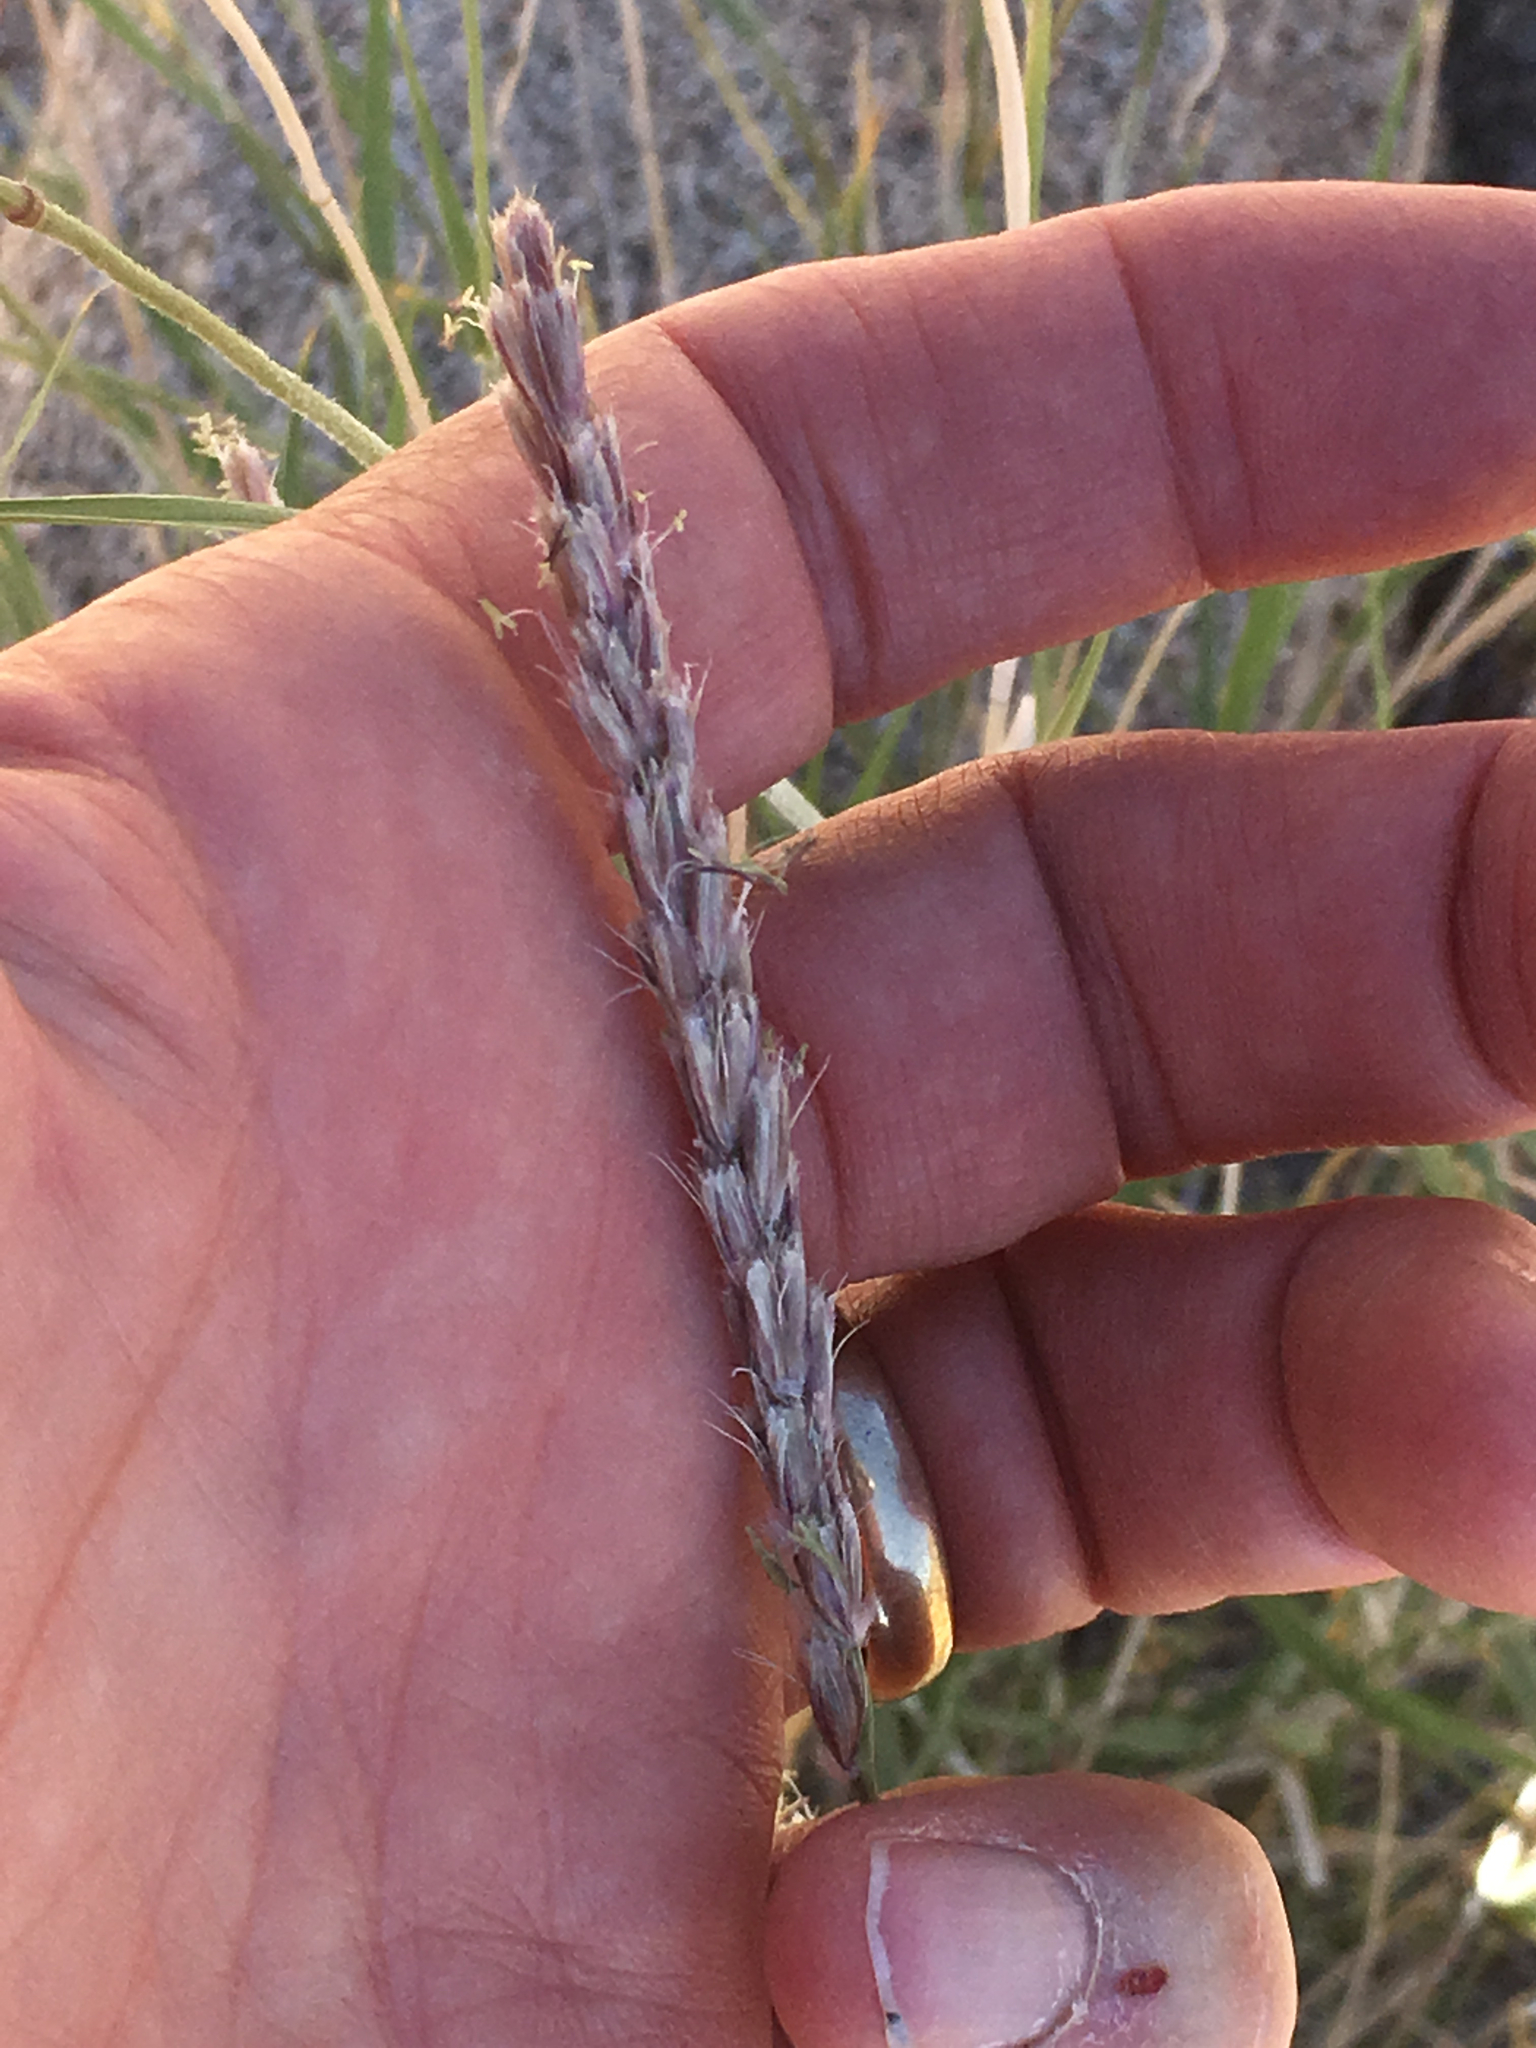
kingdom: Plantae
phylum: Tracheophyta
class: Liliopsida
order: Poales
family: Poaceae
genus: Hilaria
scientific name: Hilaria rigida
